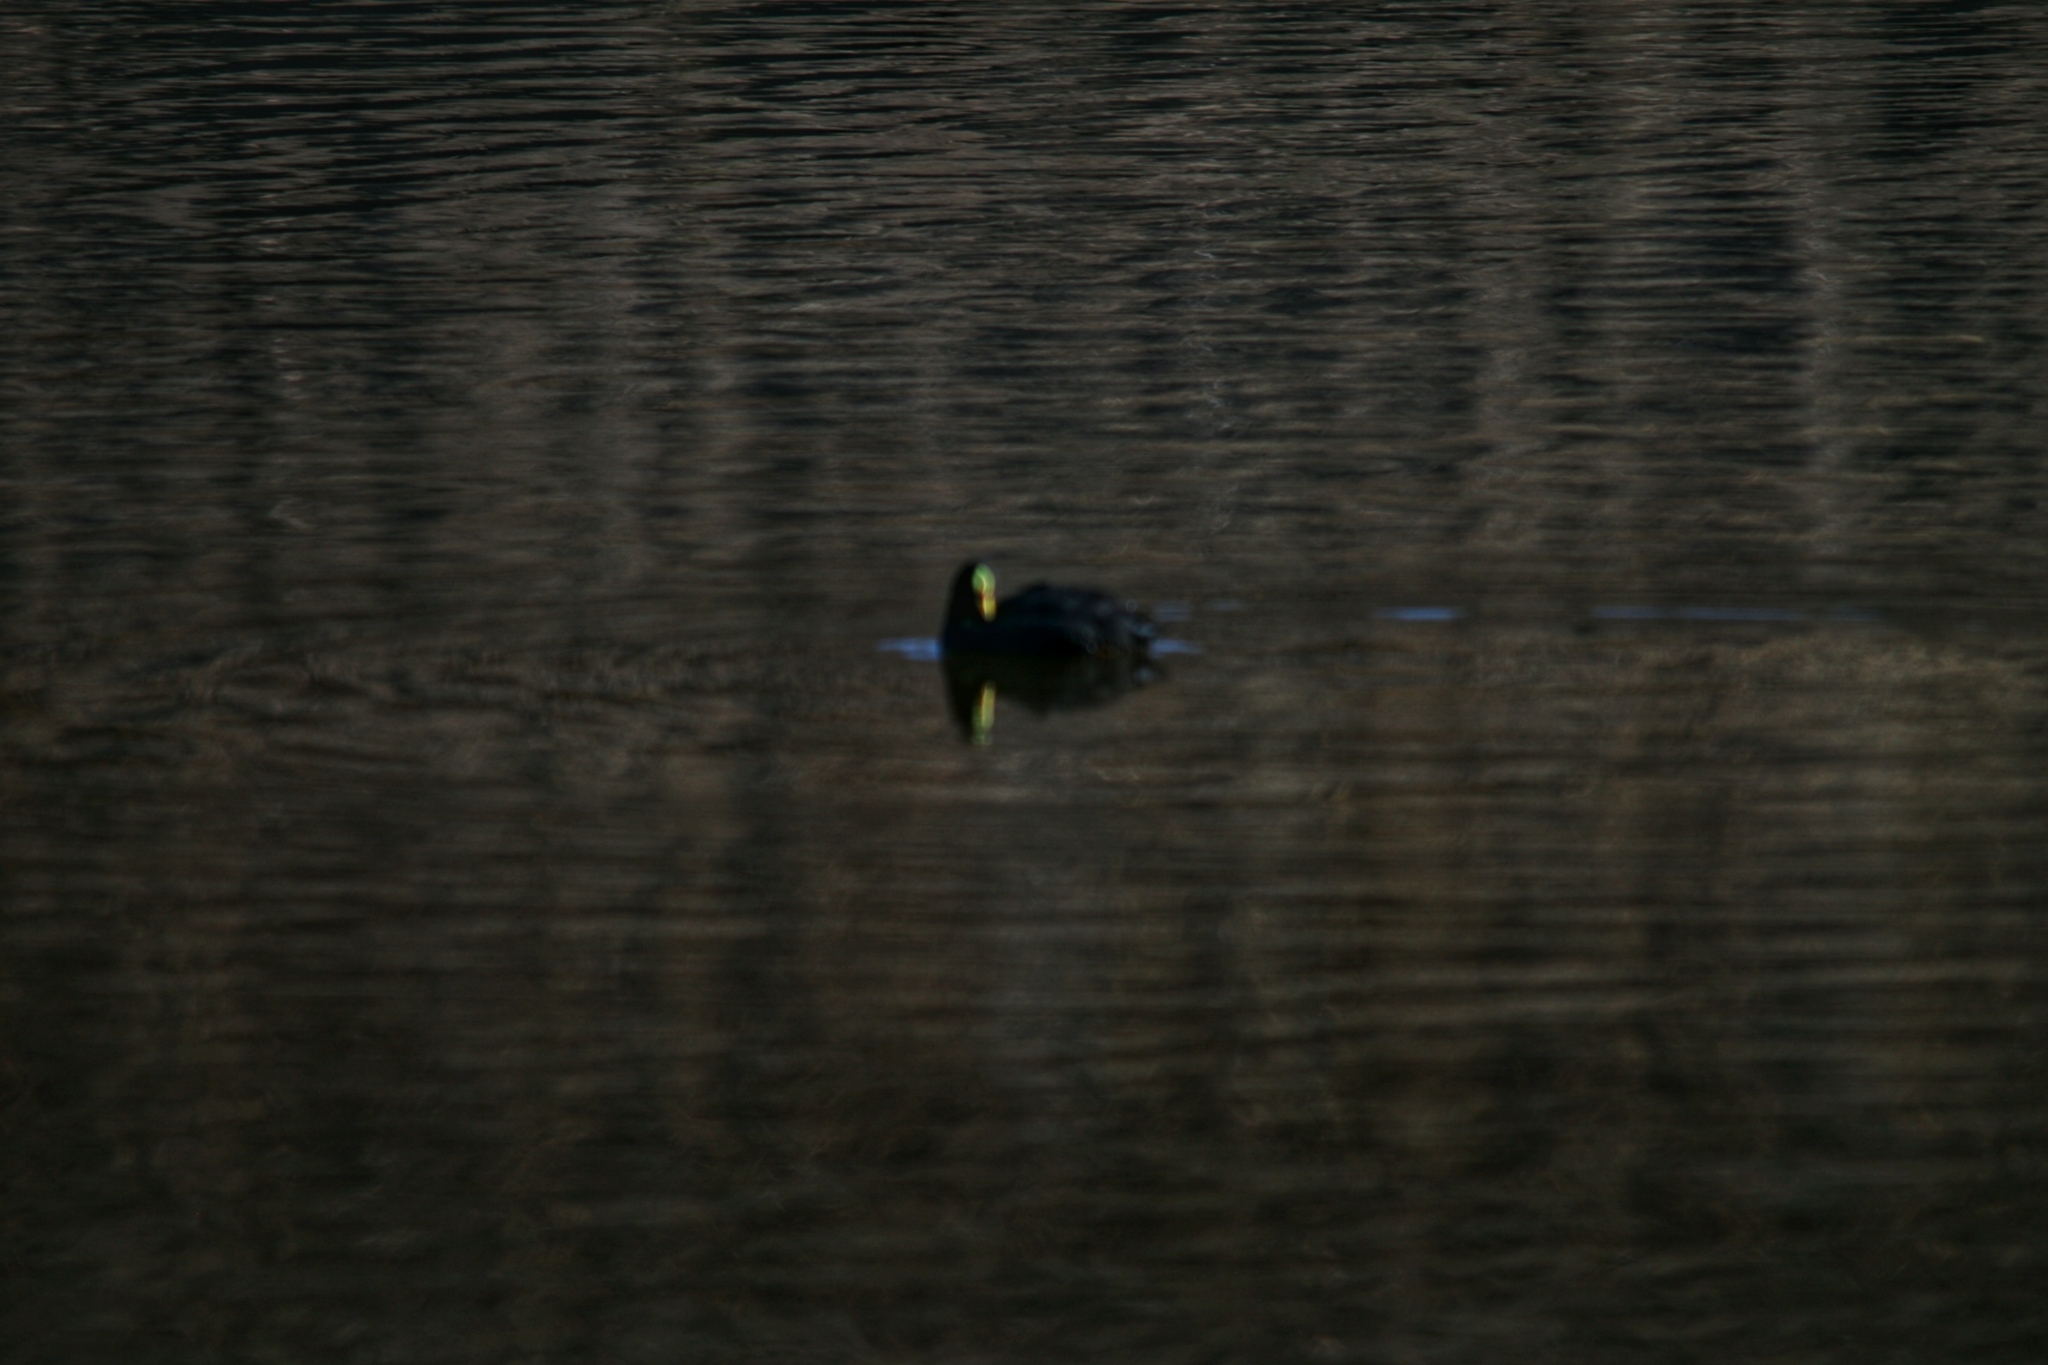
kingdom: Animalia
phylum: Chordata
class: Aves
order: Gruiformes
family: Rallidae
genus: Fulica
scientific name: Fulica armillata
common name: Red-gartered coot
